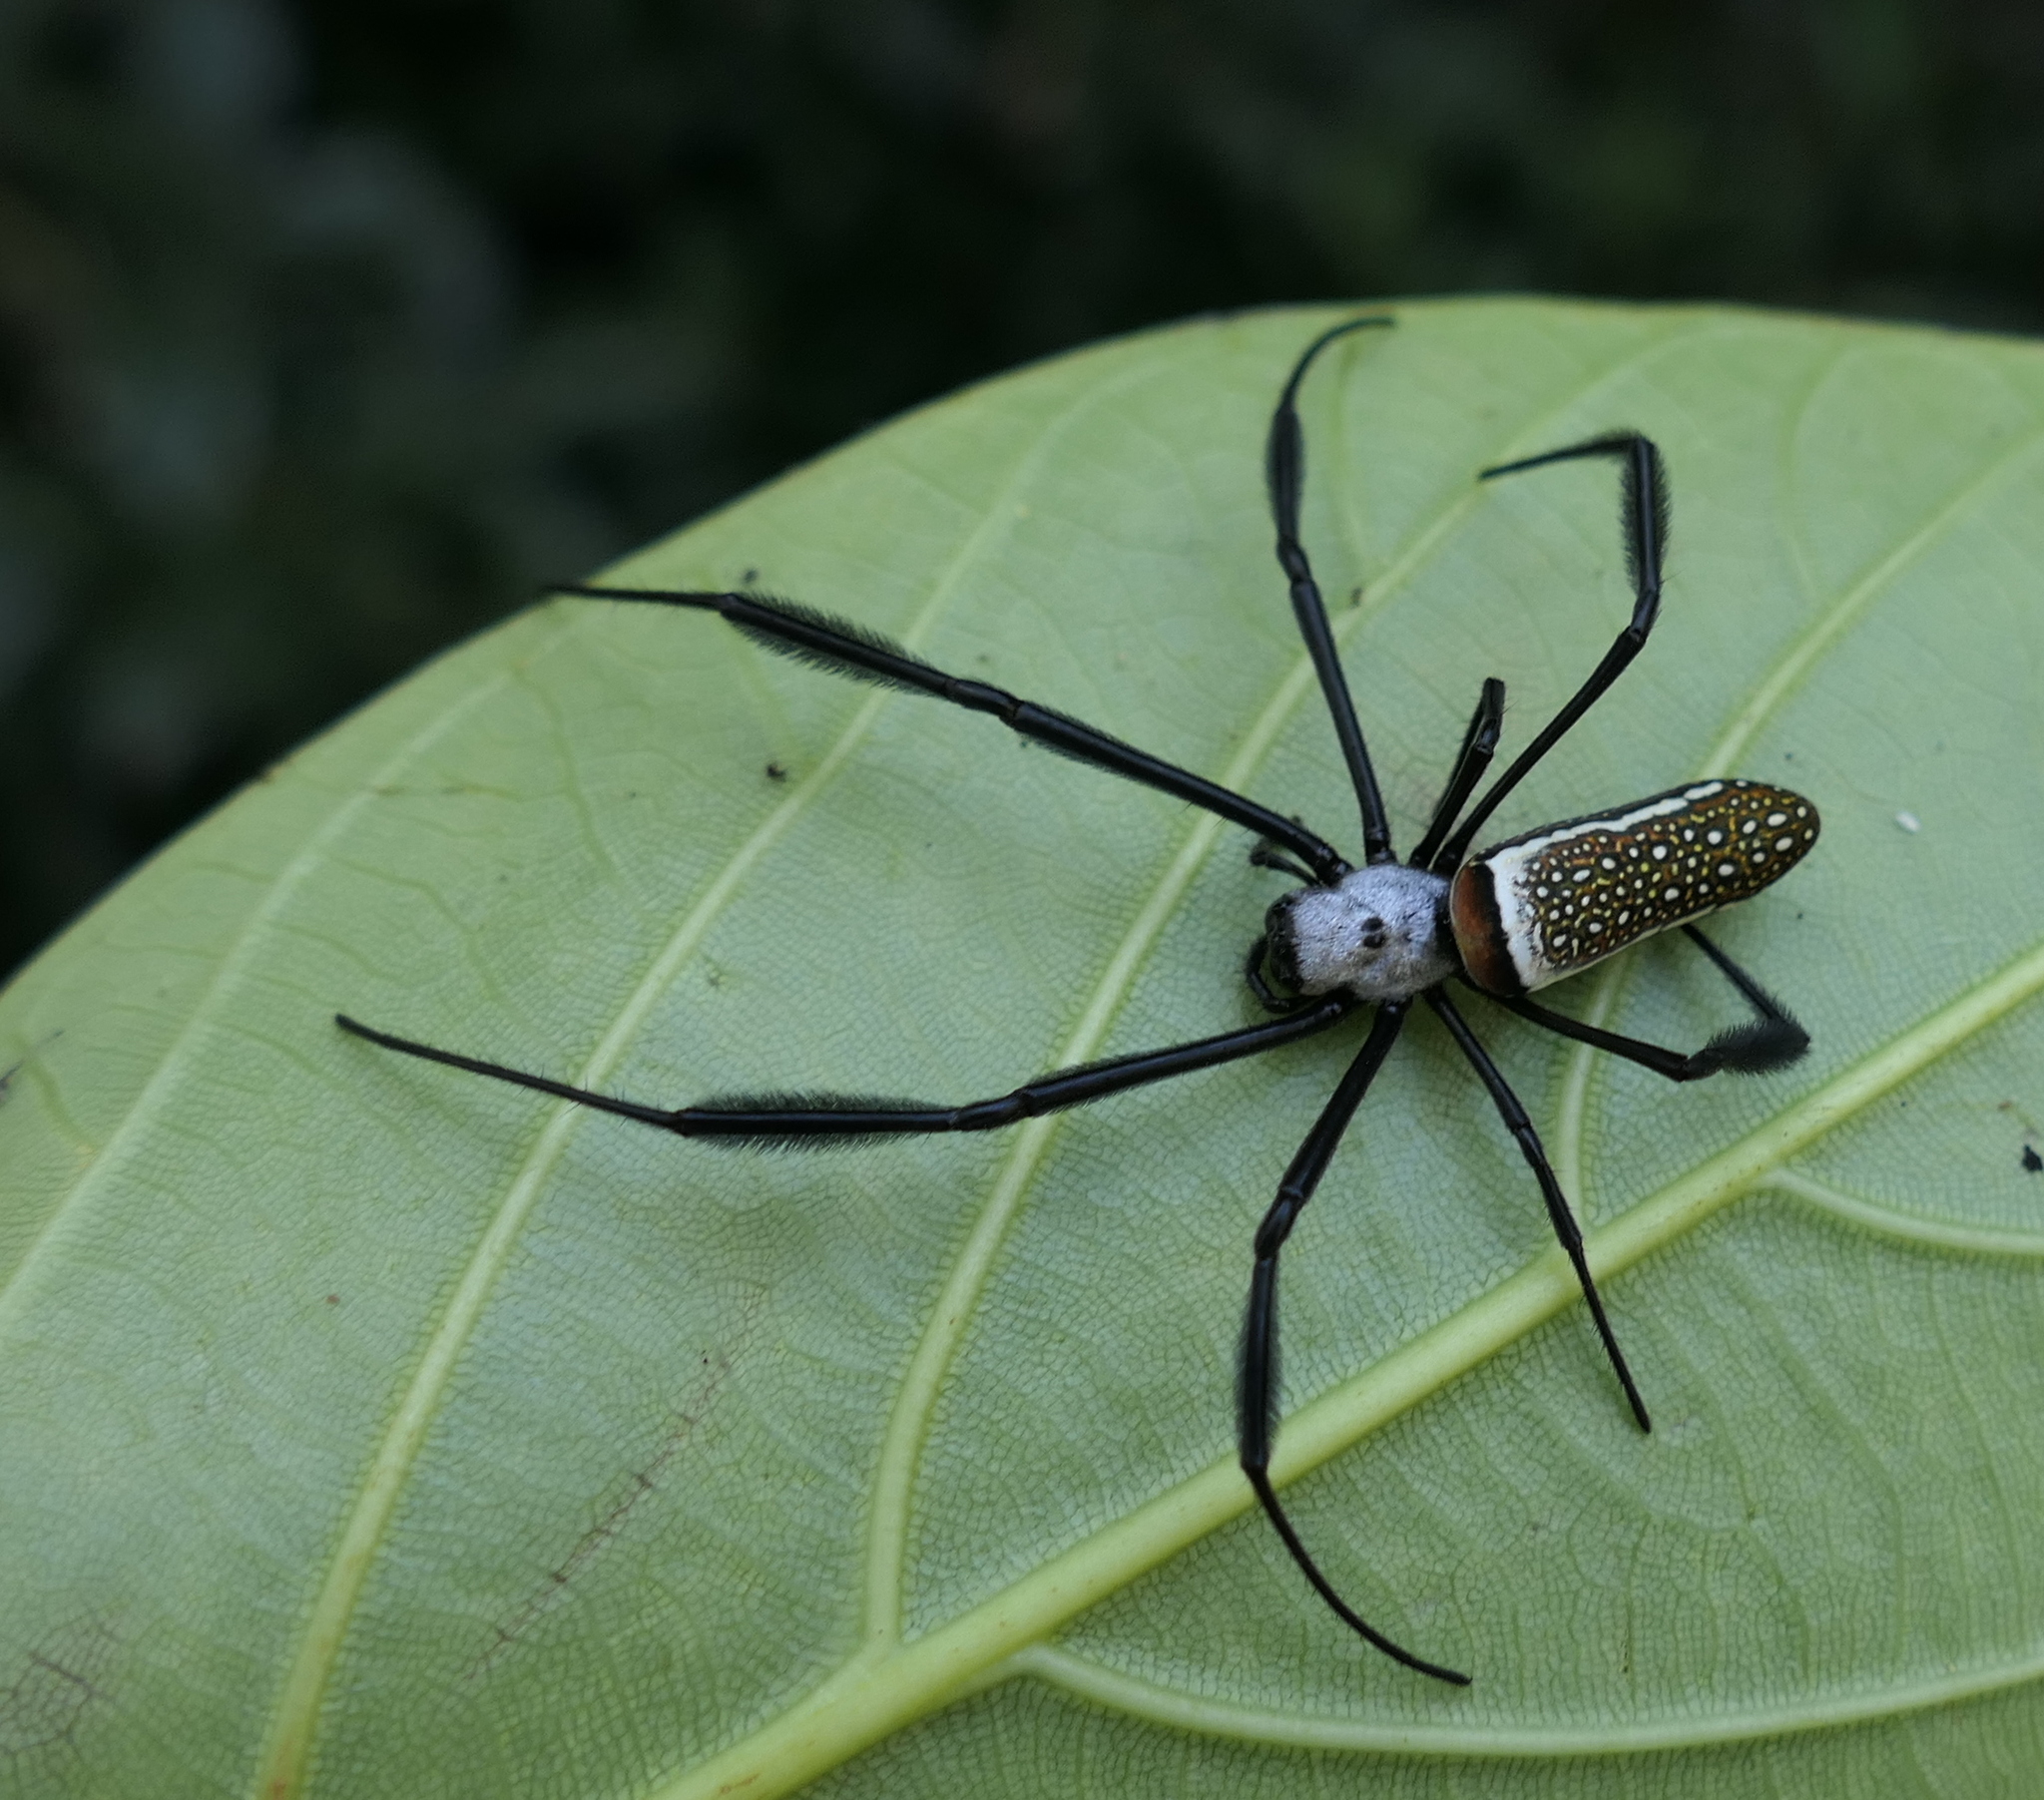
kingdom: Animalia
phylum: Arthropoda
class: Arachnida
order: Araneae
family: Araneidae
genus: Trichonephila
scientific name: Trichonephila clavipes
